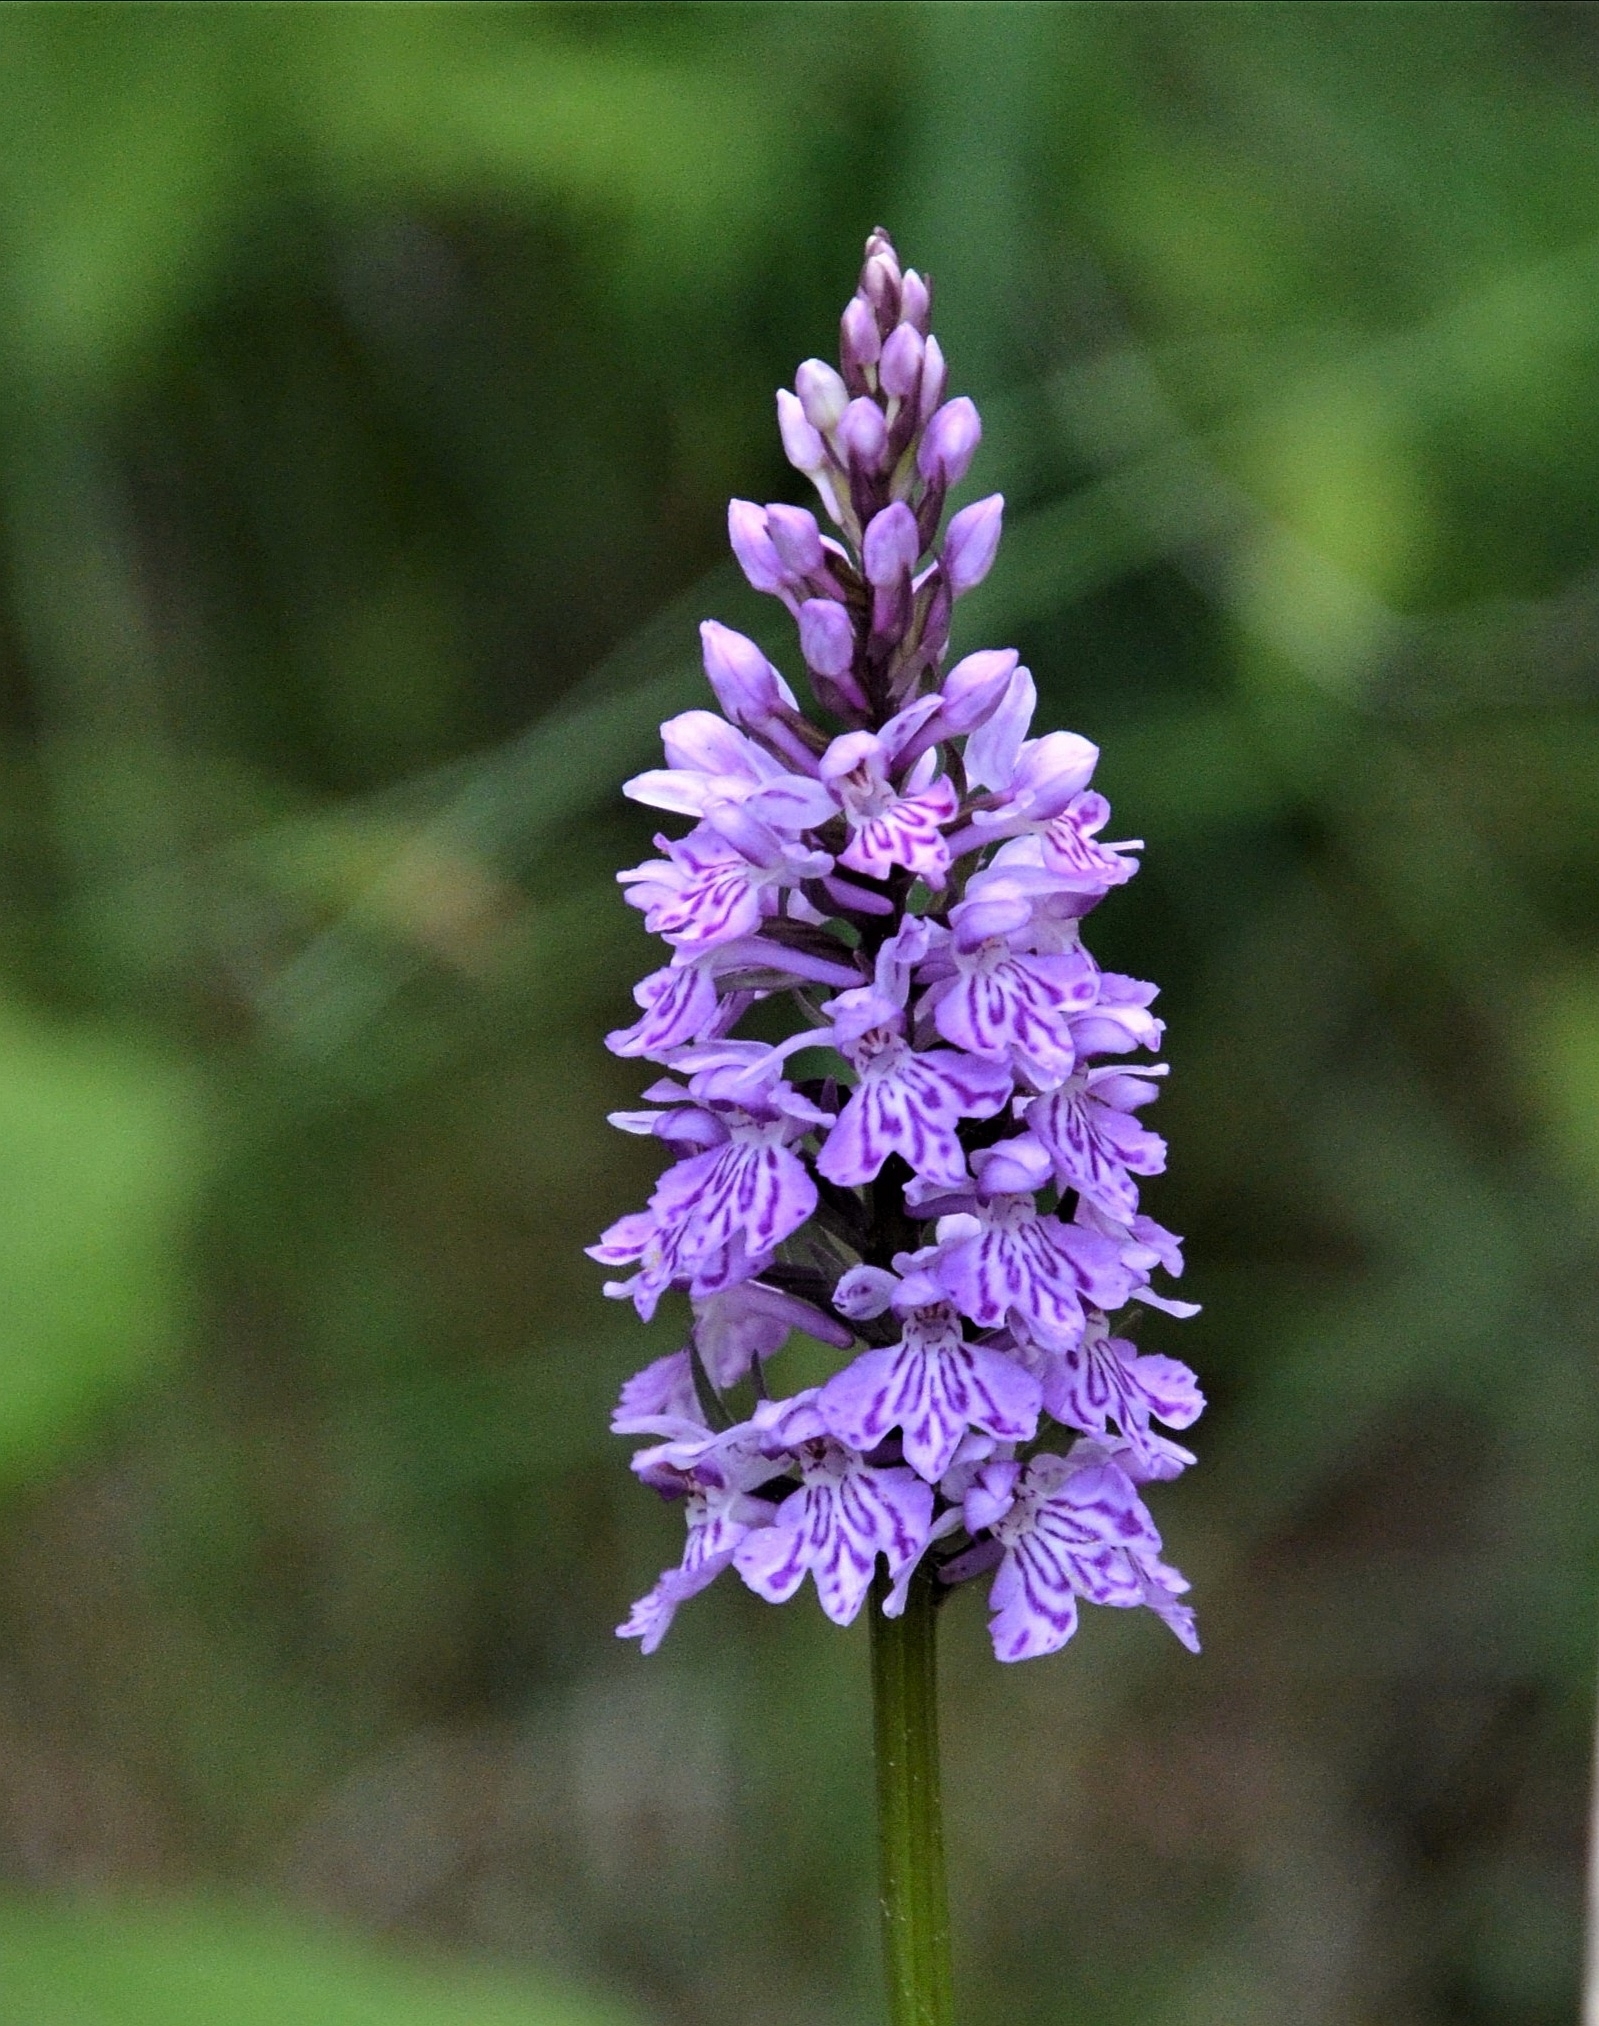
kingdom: Plantae
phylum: Tracheophyta
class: Liliopsida
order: Asparagales
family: Orchidaceae
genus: Dactylorhiza
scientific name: Dactylorhiza maculata
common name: Heath spotted-orchid
